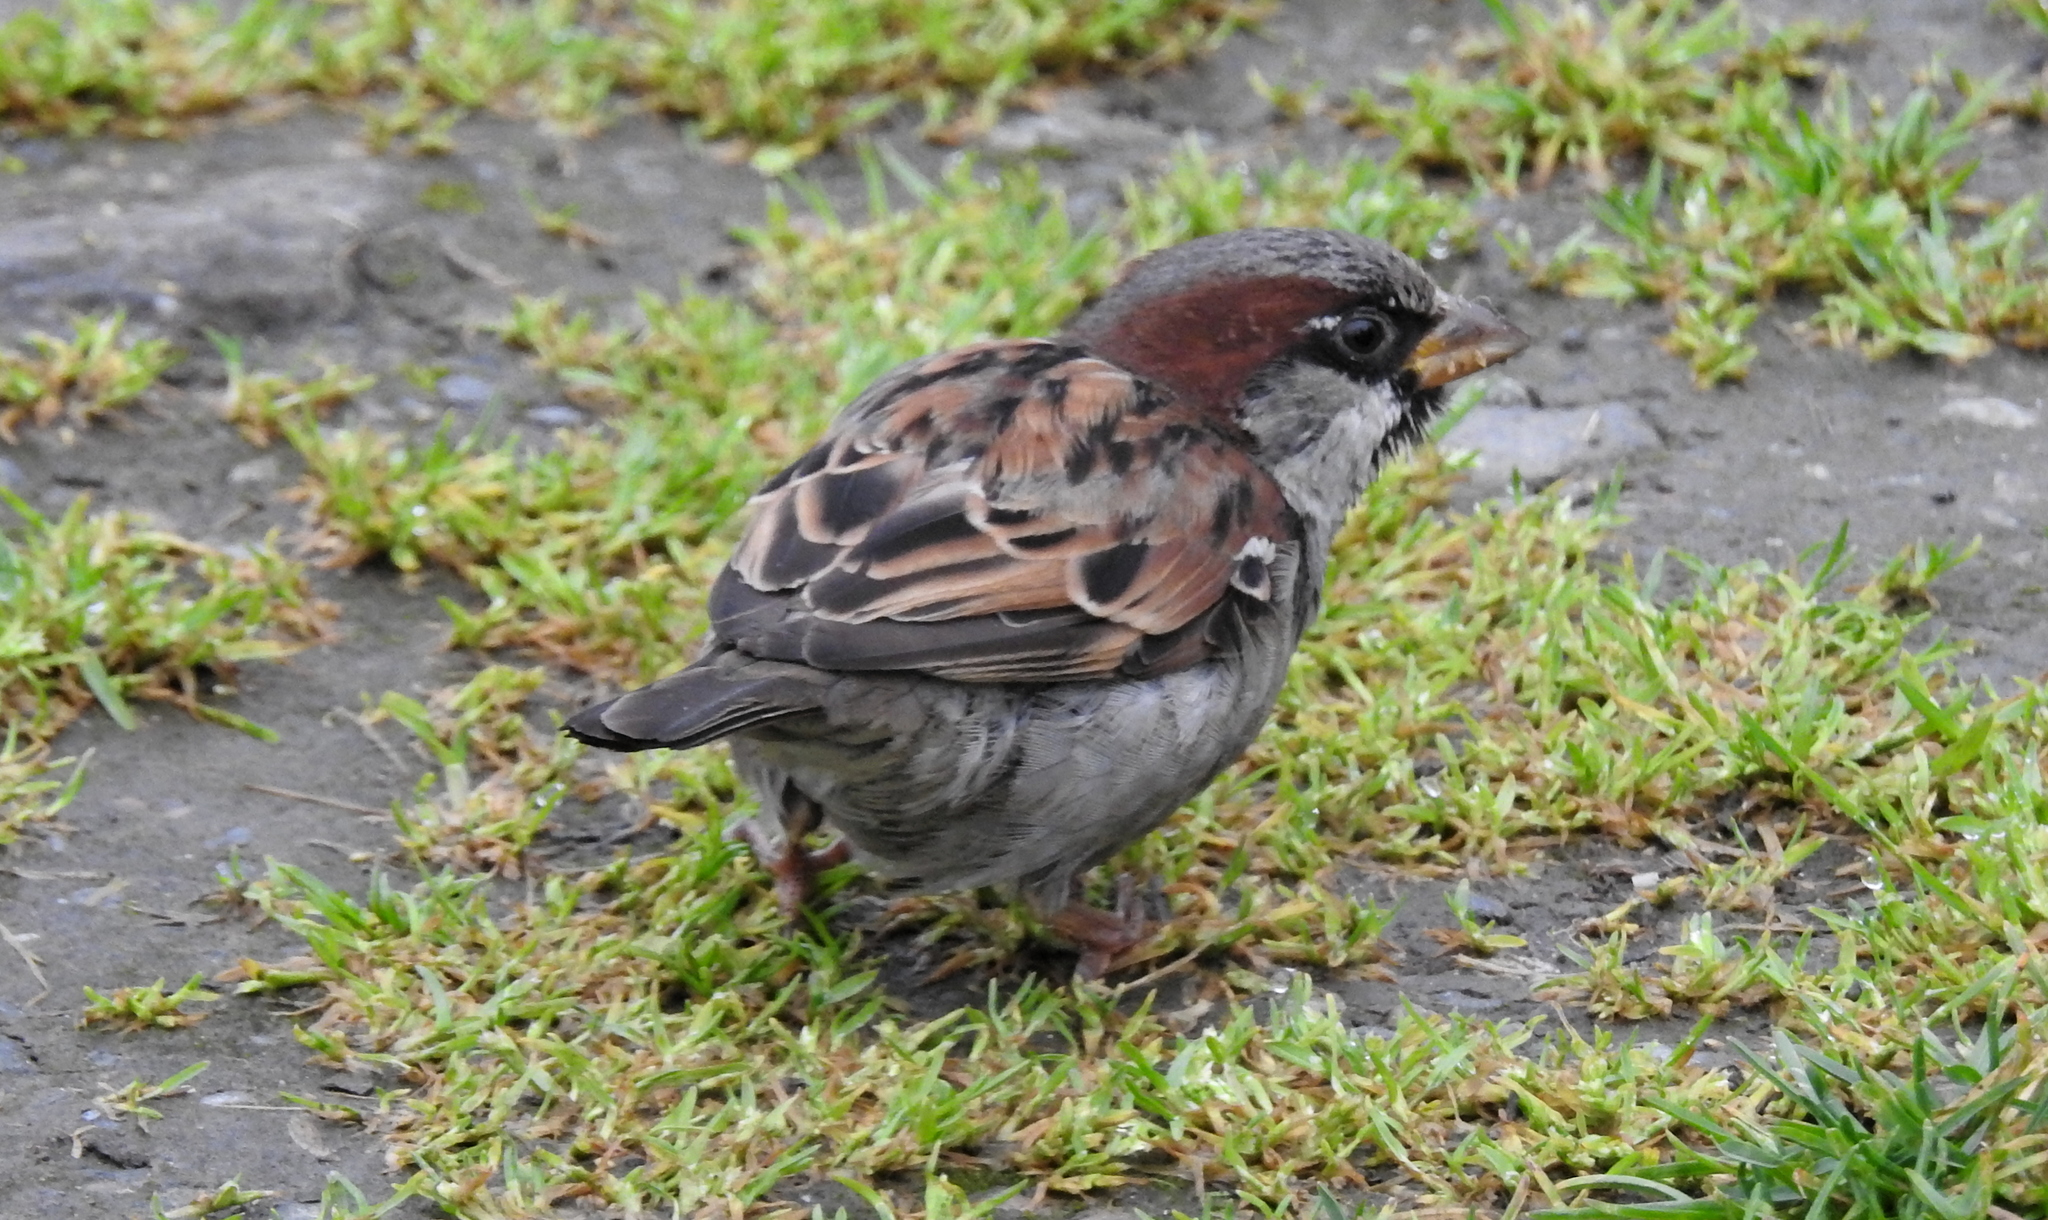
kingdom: Animalia
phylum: Chordata
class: Aves
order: Passeriformes
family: Passeridae
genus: Passer
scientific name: Passer domesticus
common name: House sparrow
